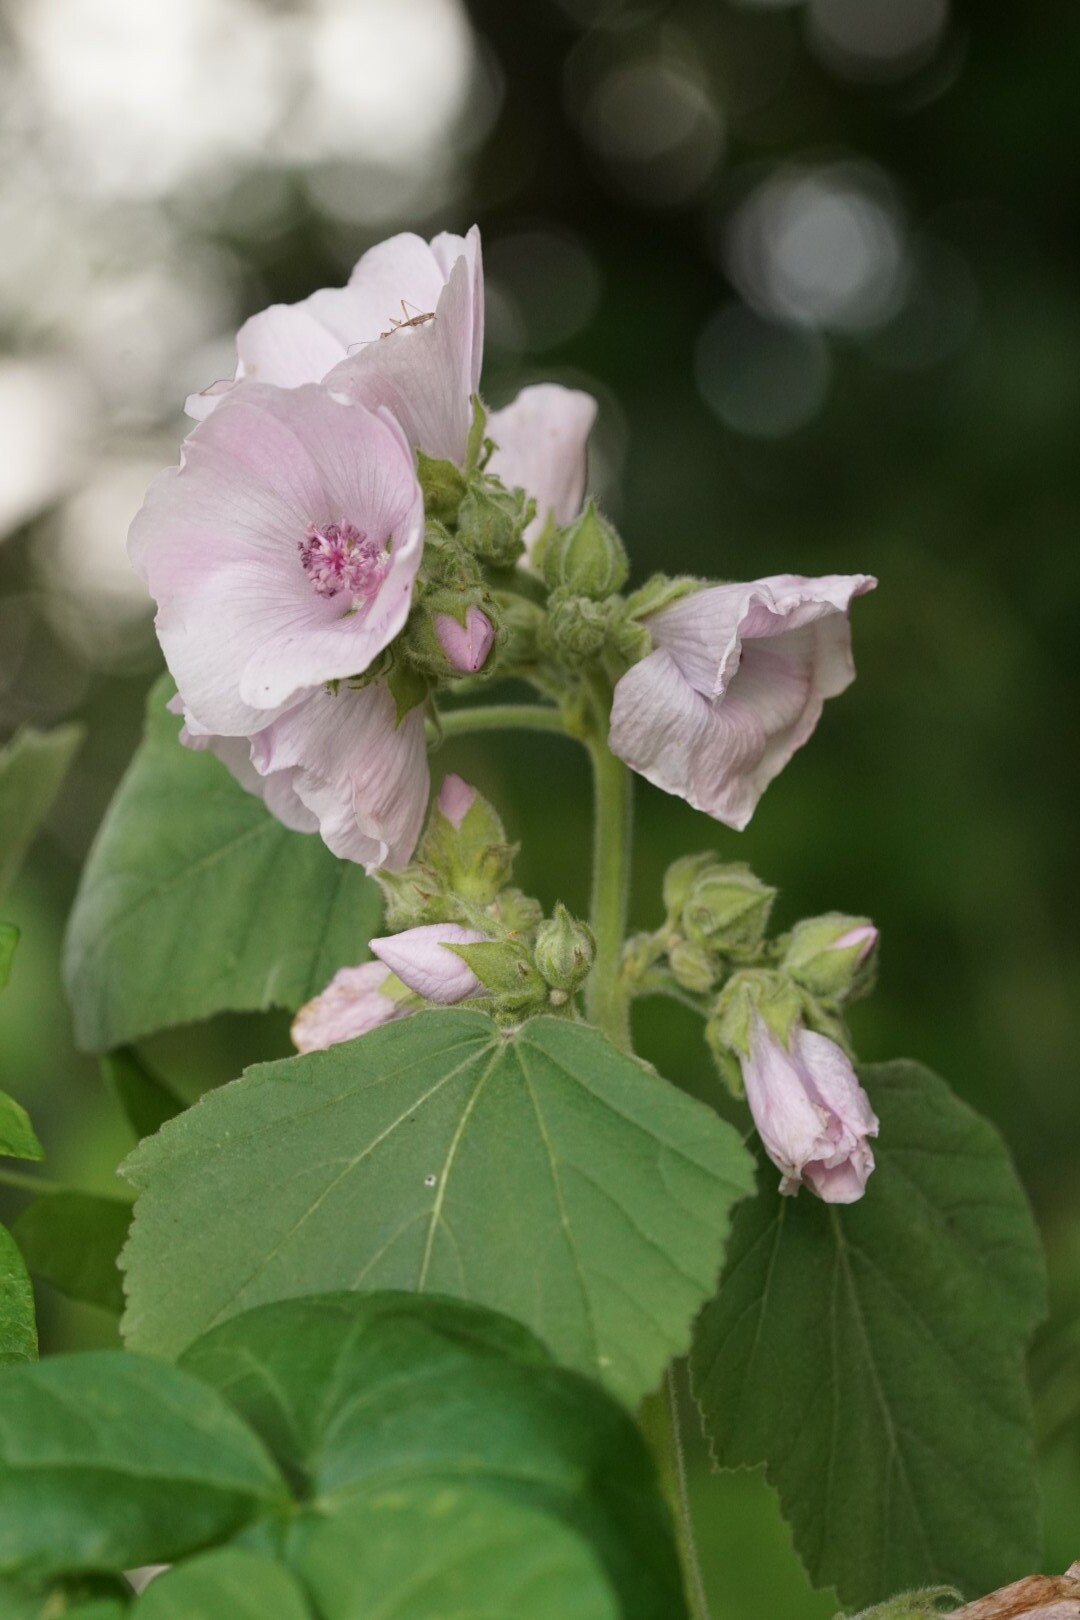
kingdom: Plantae
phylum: Tracheophyta
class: Magnoliopsida
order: Malvales
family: Malvaceae
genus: Althaea
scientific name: Althaea officinalis
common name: Marsh-mallow
